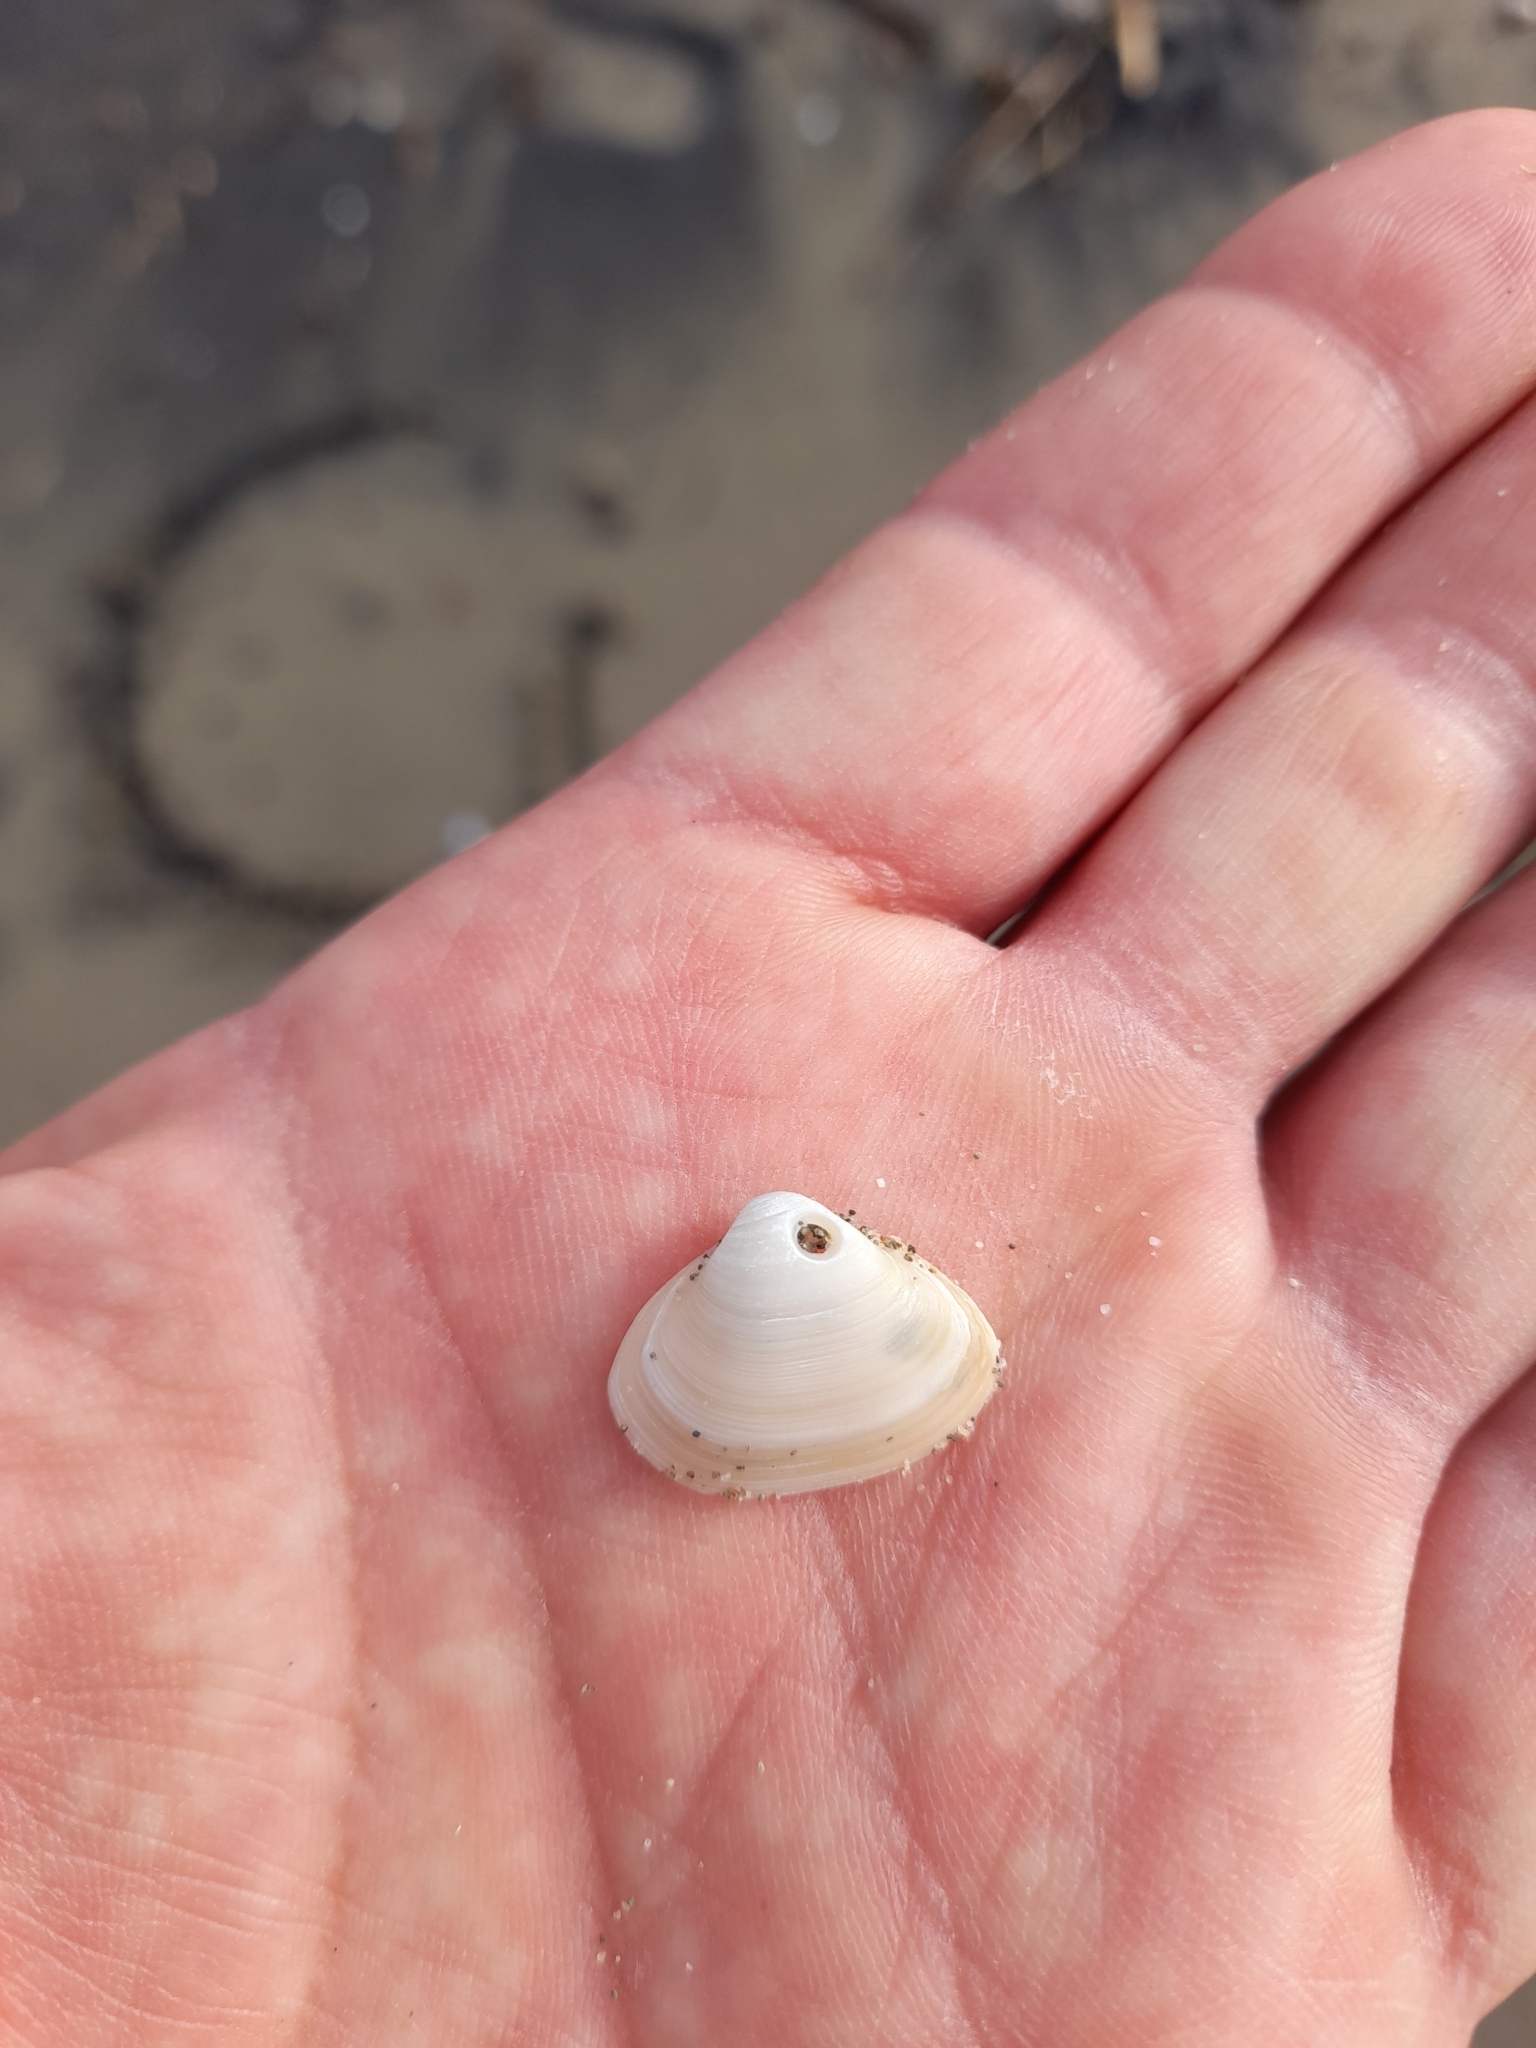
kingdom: Animalia
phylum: Mollusca
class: Bivalvia
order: Venerida
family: Mactridae
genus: Spisula
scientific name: Spisula subtruncata
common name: Cut trough shell
